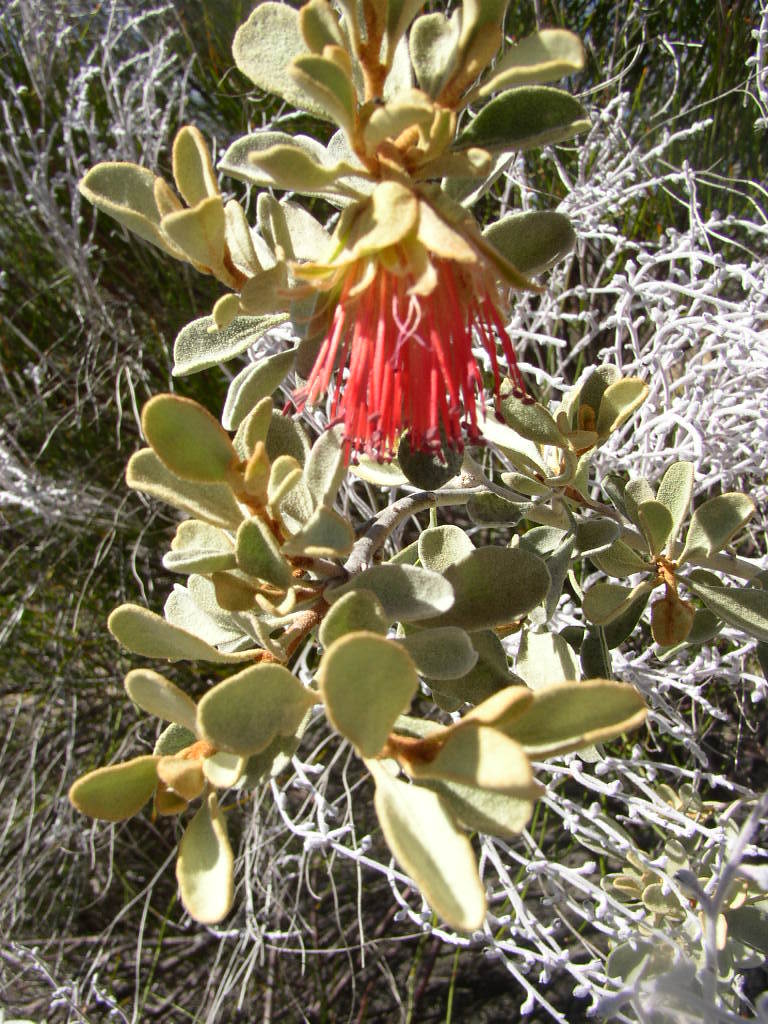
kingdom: Plantae
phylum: Tracheophyta
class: Magnoliopsida
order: Sapindales
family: Rutaceae
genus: Diplolaena
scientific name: Diplolaena mollis
